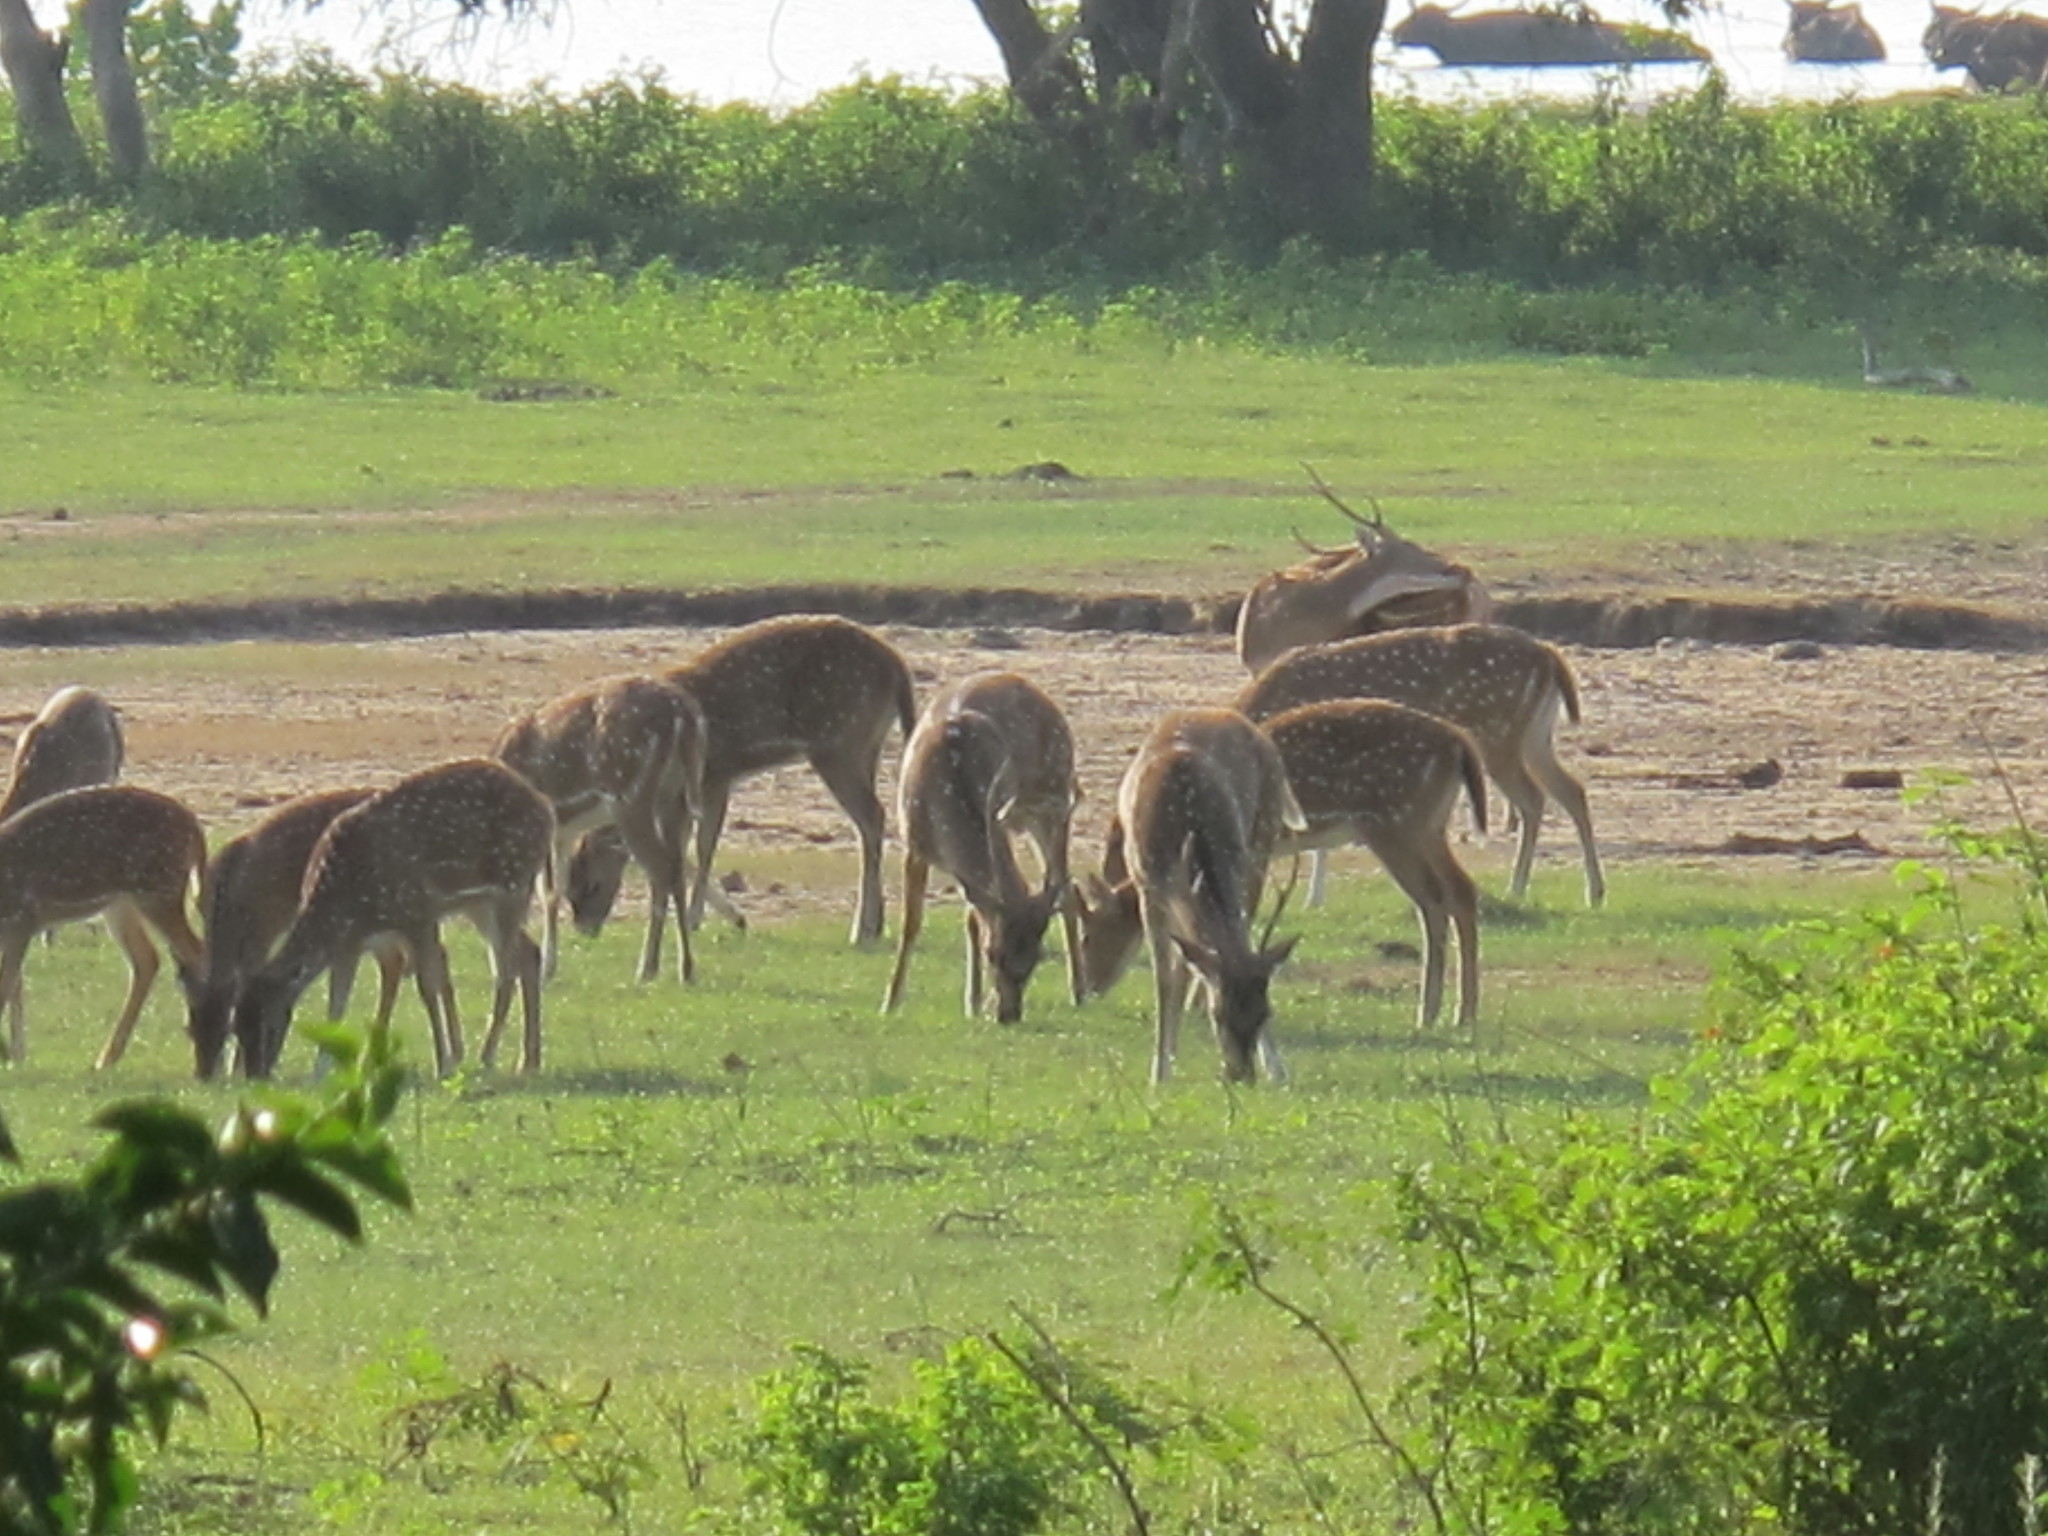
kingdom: Animalia
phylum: Chordata
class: Mammalia
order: Artiodactyla
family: Cervidae
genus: Axis
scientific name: Axis axis
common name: Chital
